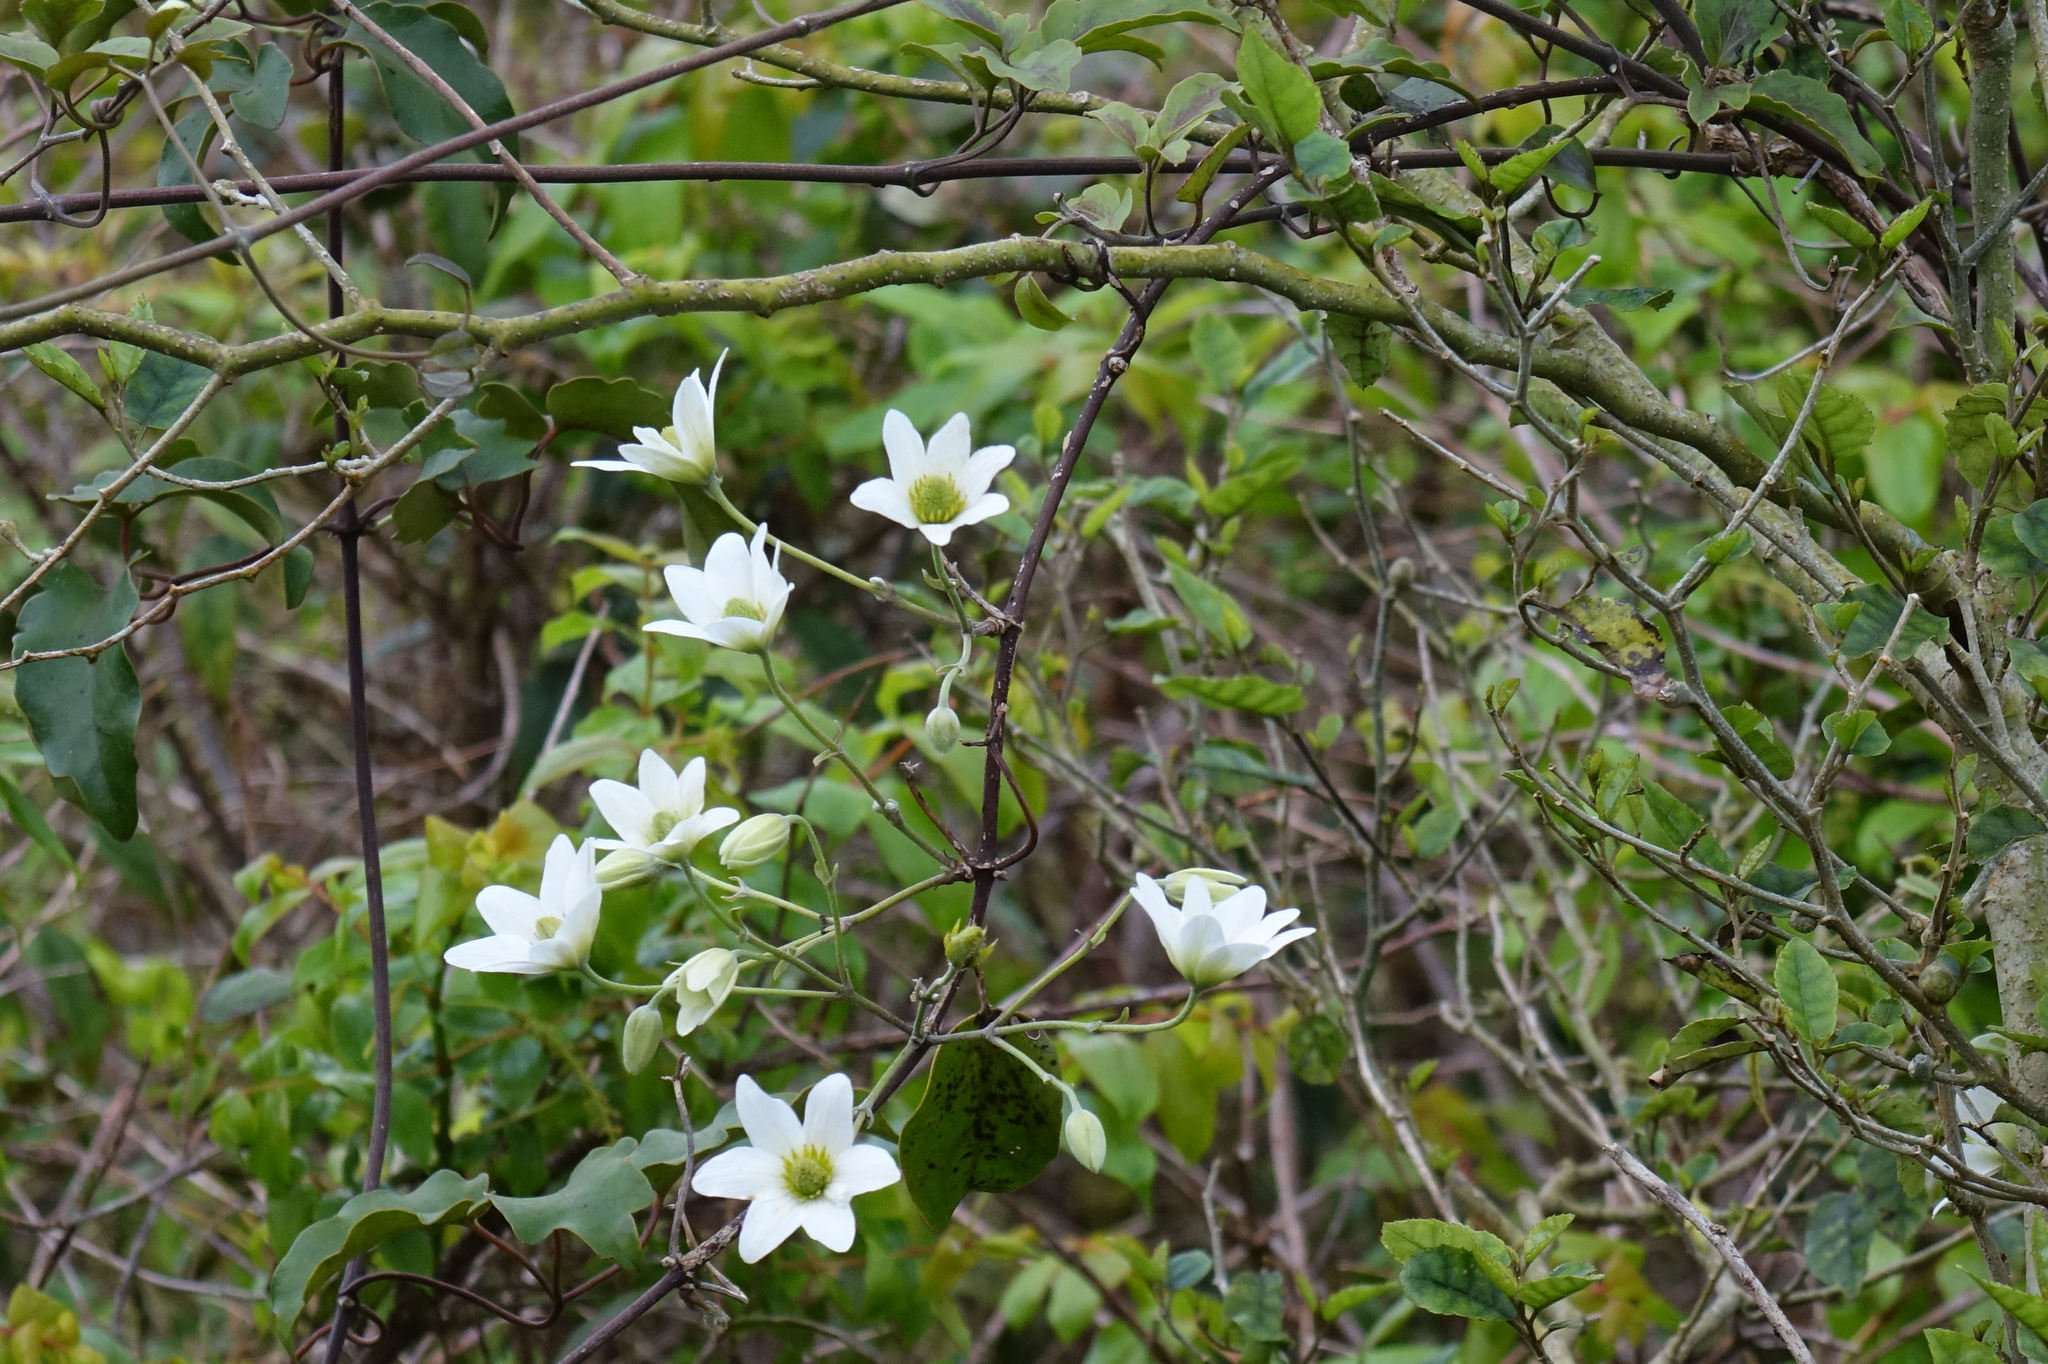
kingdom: Plantae
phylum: Tracheophyta
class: Magnoliopsida
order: Ranunculales
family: Ranunculaceae
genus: Clematis
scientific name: Clematis paniculata
